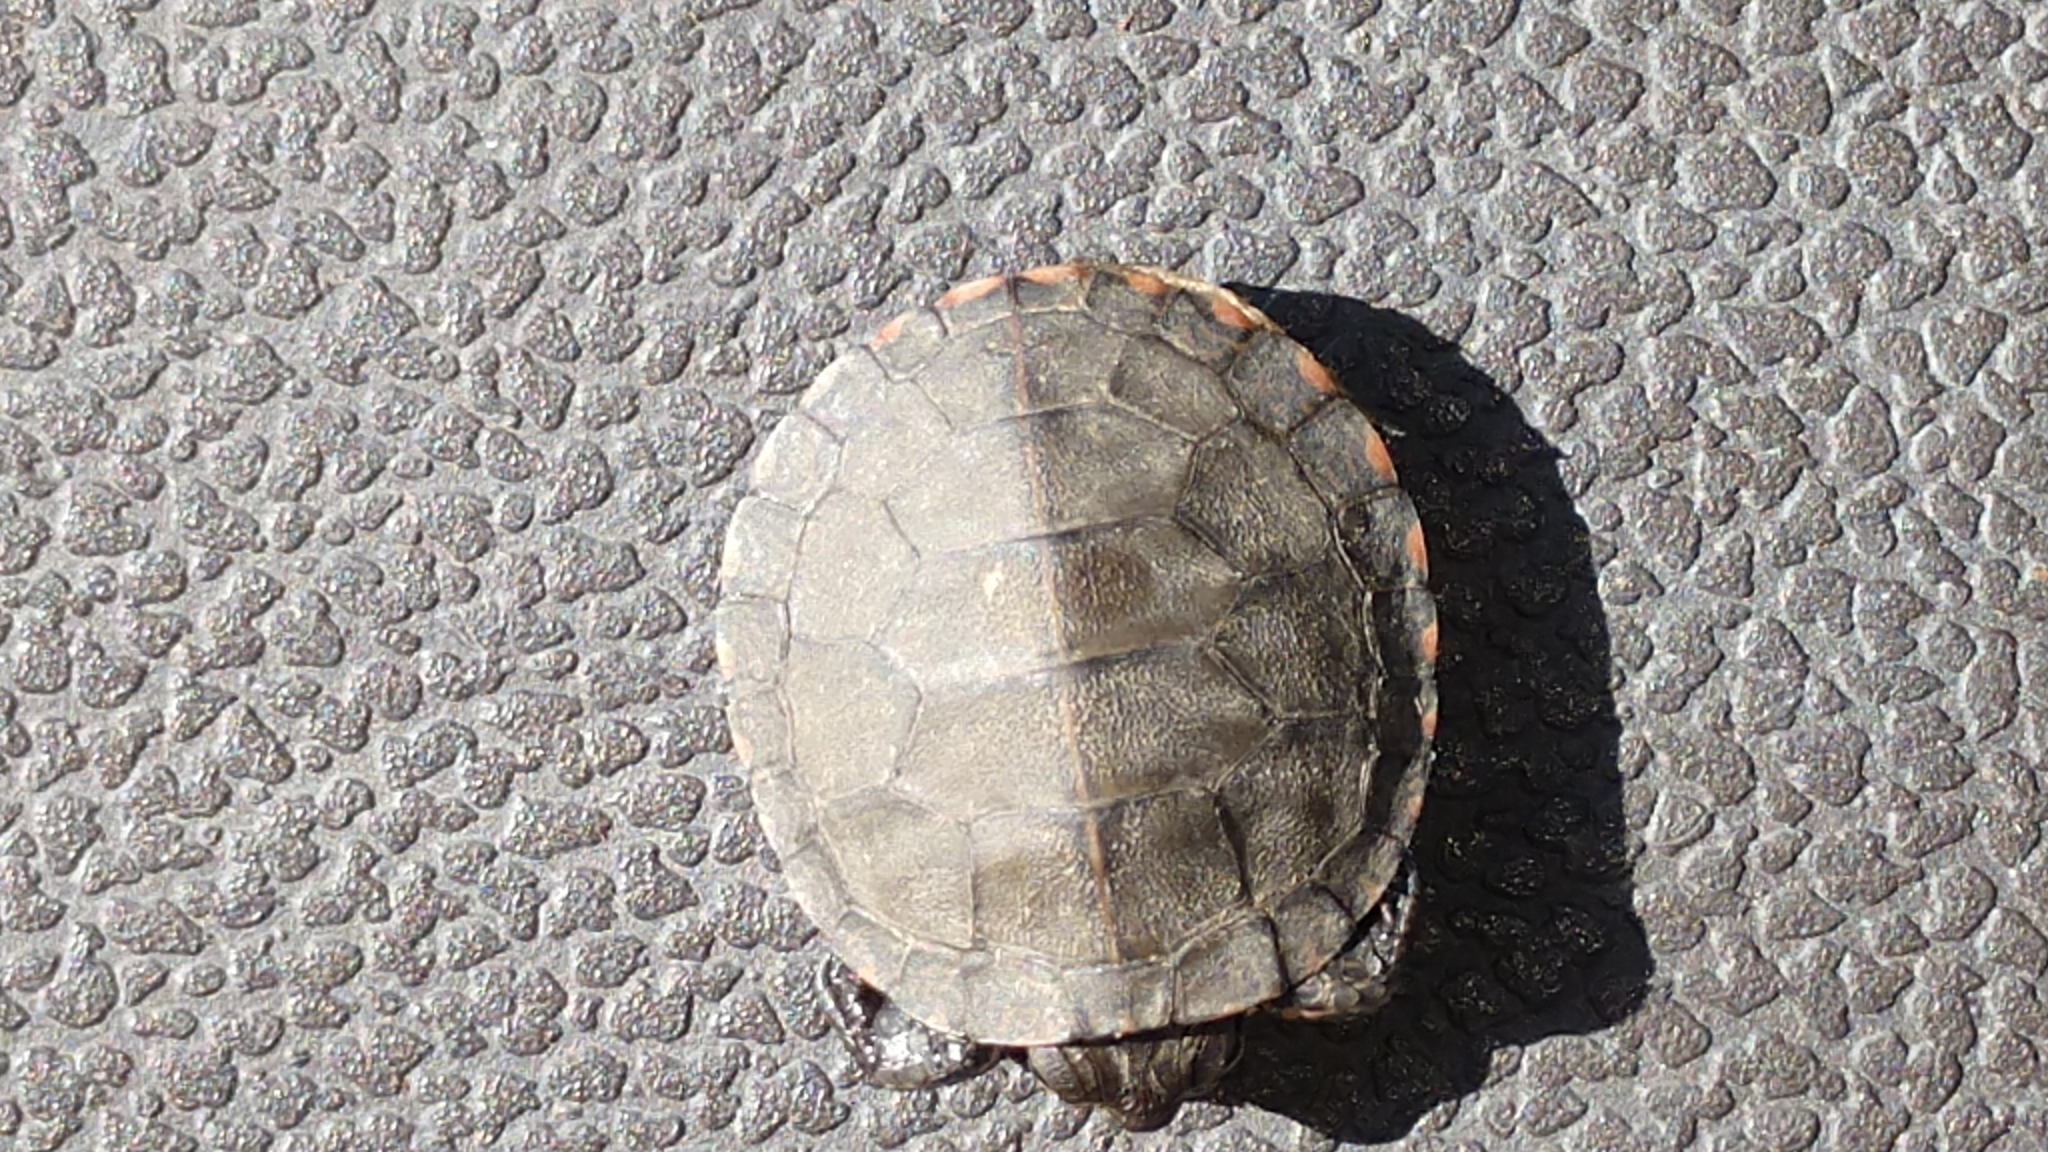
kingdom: Animalia
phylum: Chordata
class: Testudines
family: Emydidae
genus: Chrysemys
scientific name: Chrysemys picta
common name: Painted turtle
